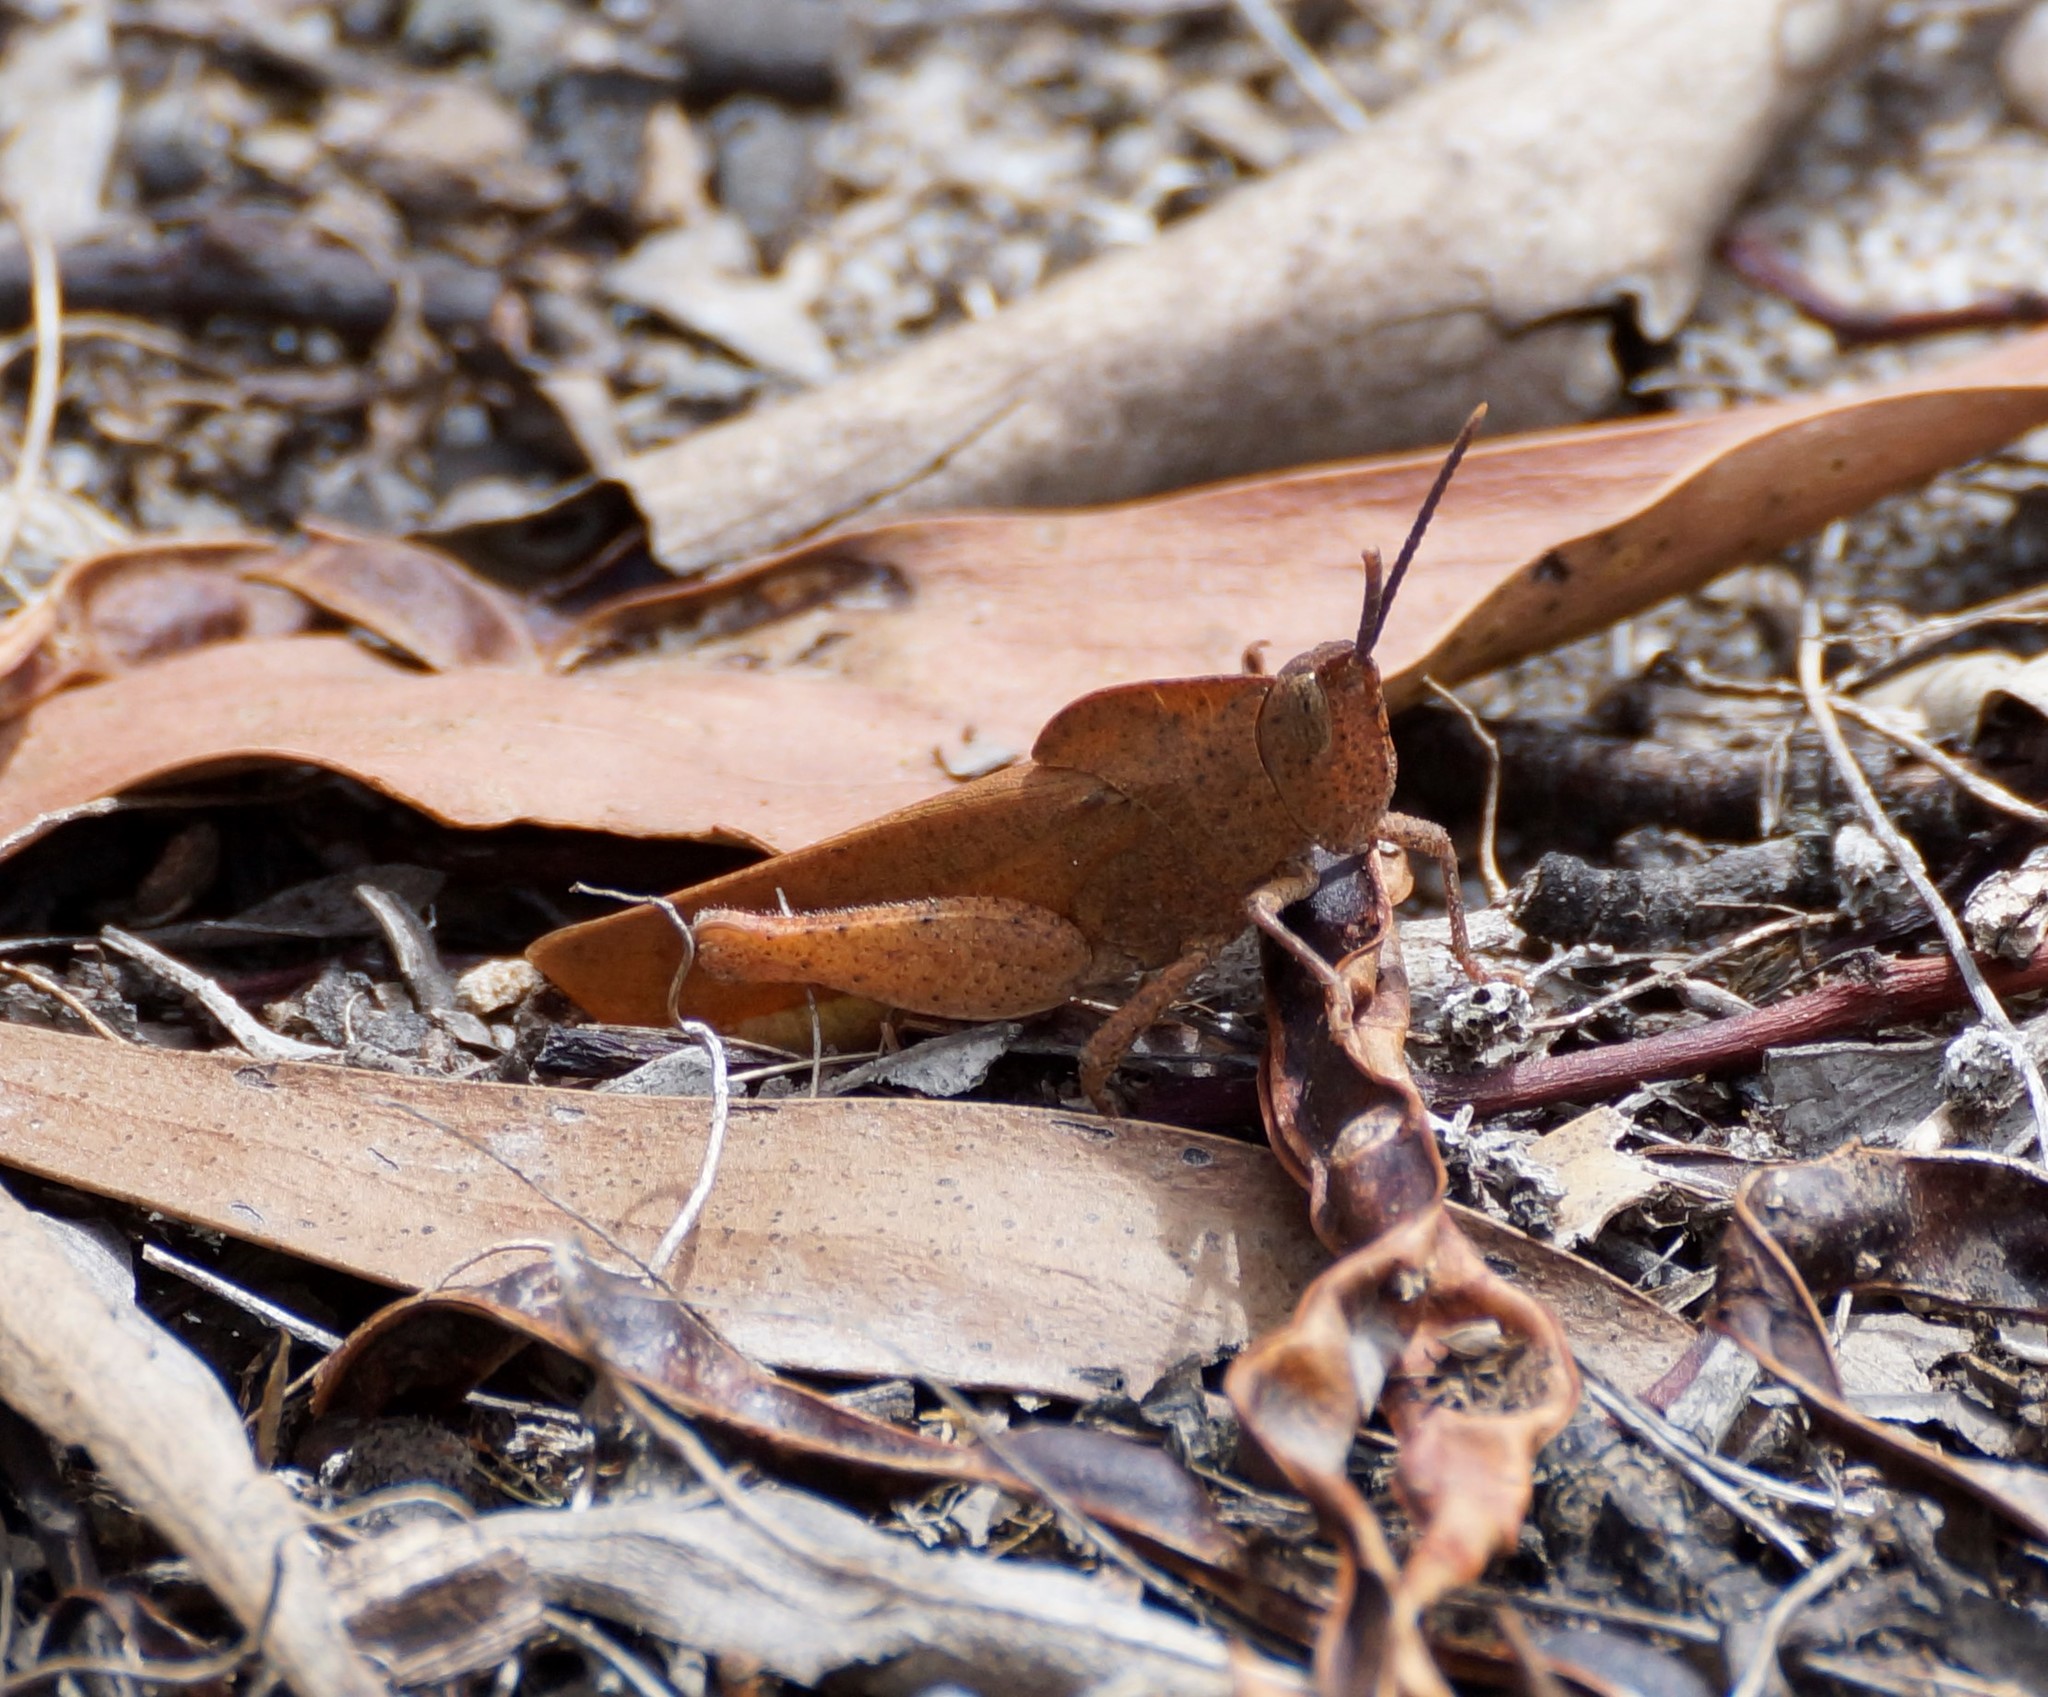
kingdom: Animalia
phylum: Arthropoda
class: Insecta
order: Orthoptera
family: Acrididae
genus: Goniaea
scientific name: Goniaea australasiae
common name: Gumleaf grasshopper
